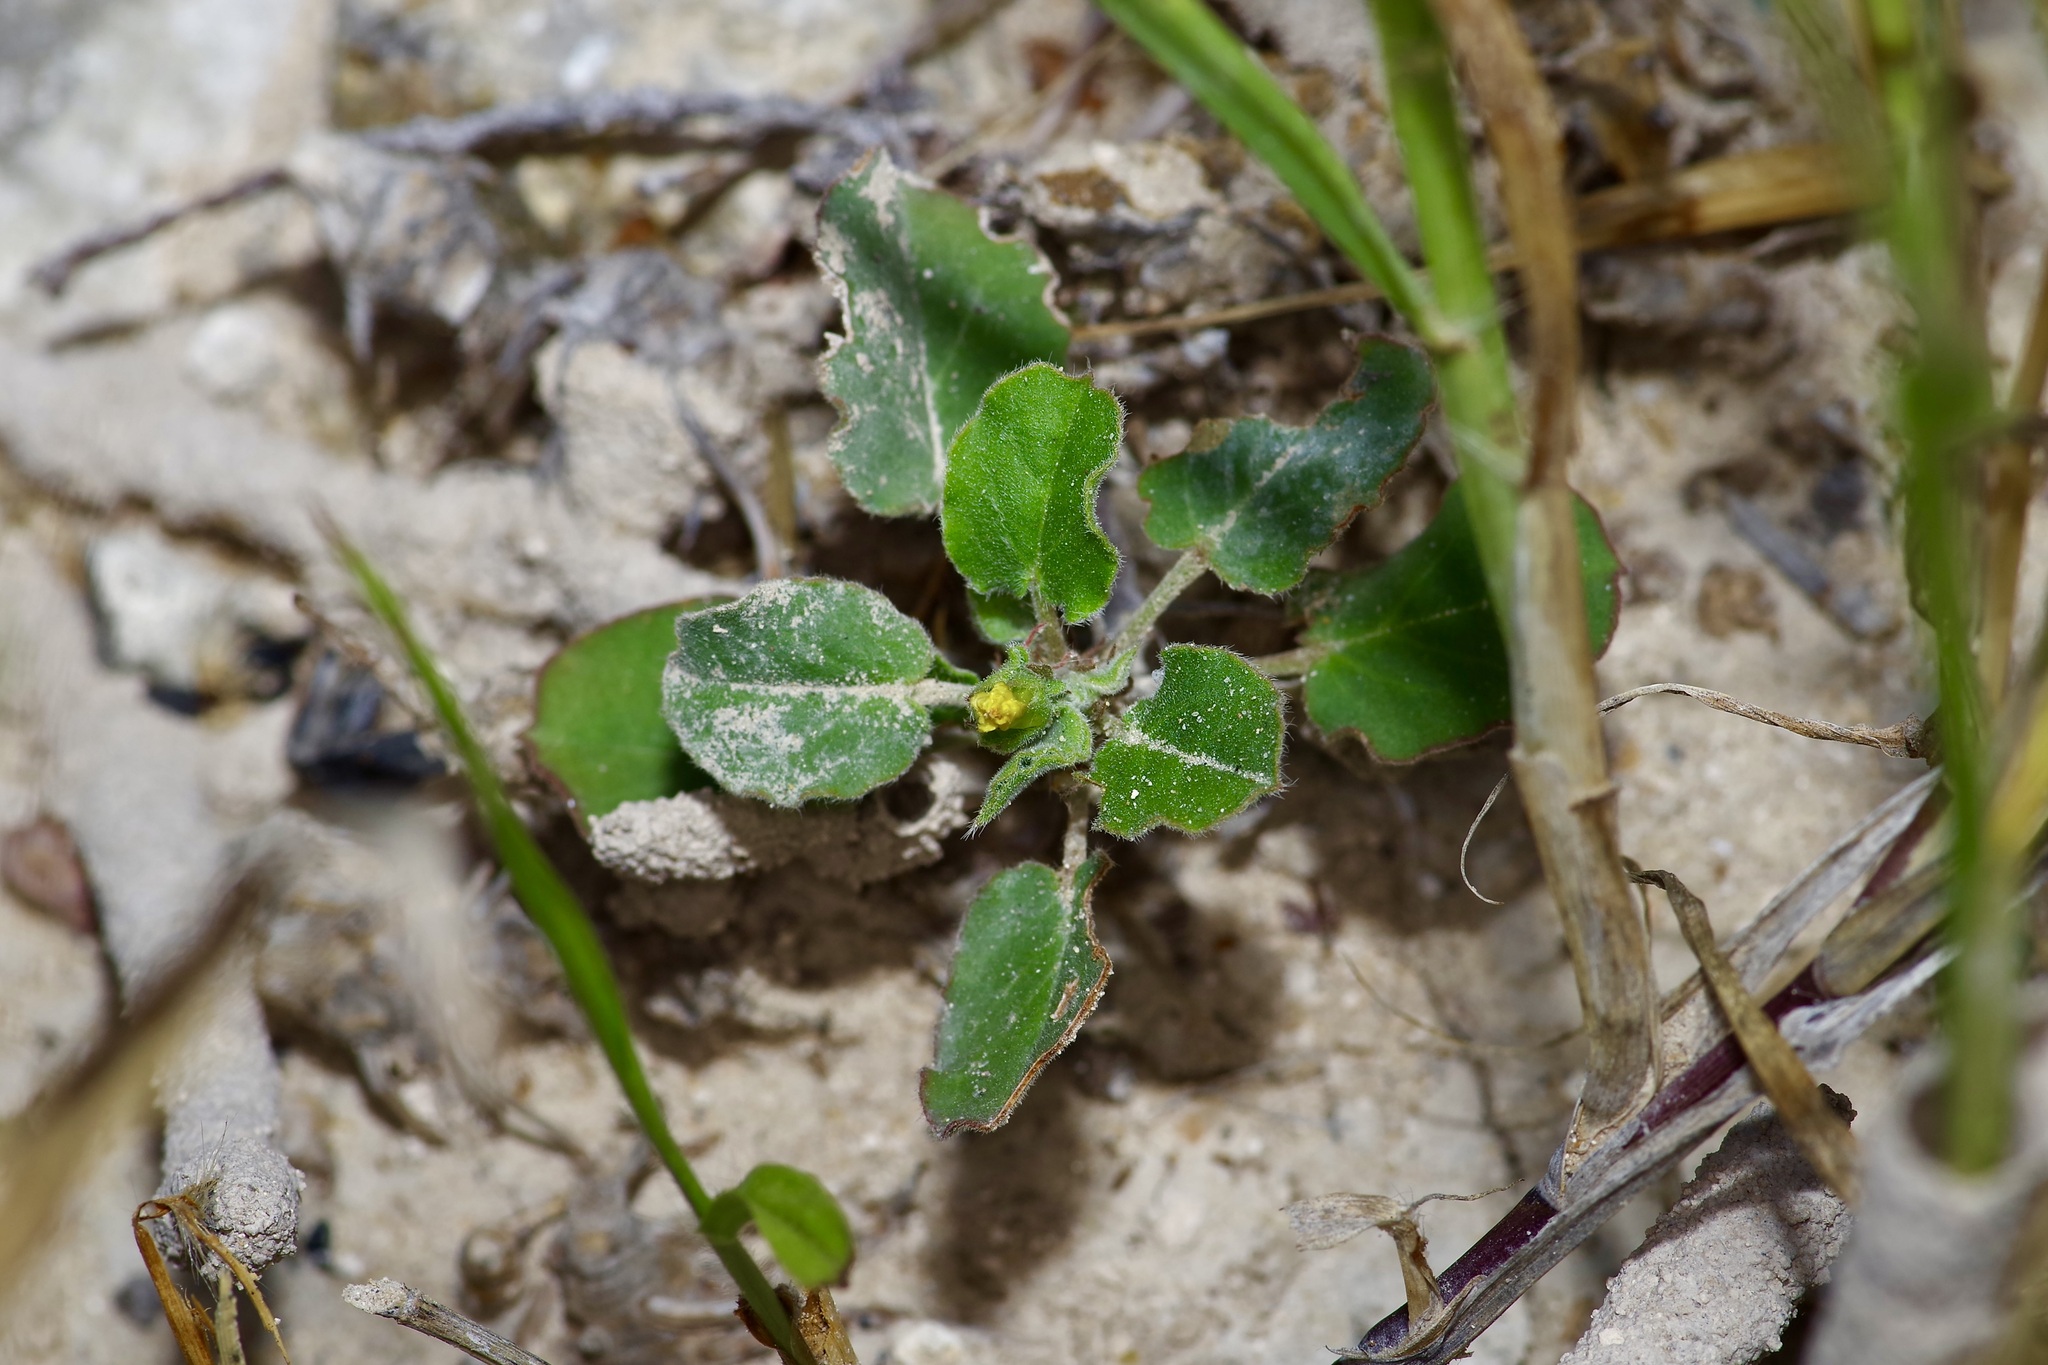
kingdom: Plantae
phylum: Tracheophyta
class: Magnoliopsida
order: Oxalidales
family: Oxalidaceae
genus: Oxalis
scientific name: Oxalis dichondrifolia
